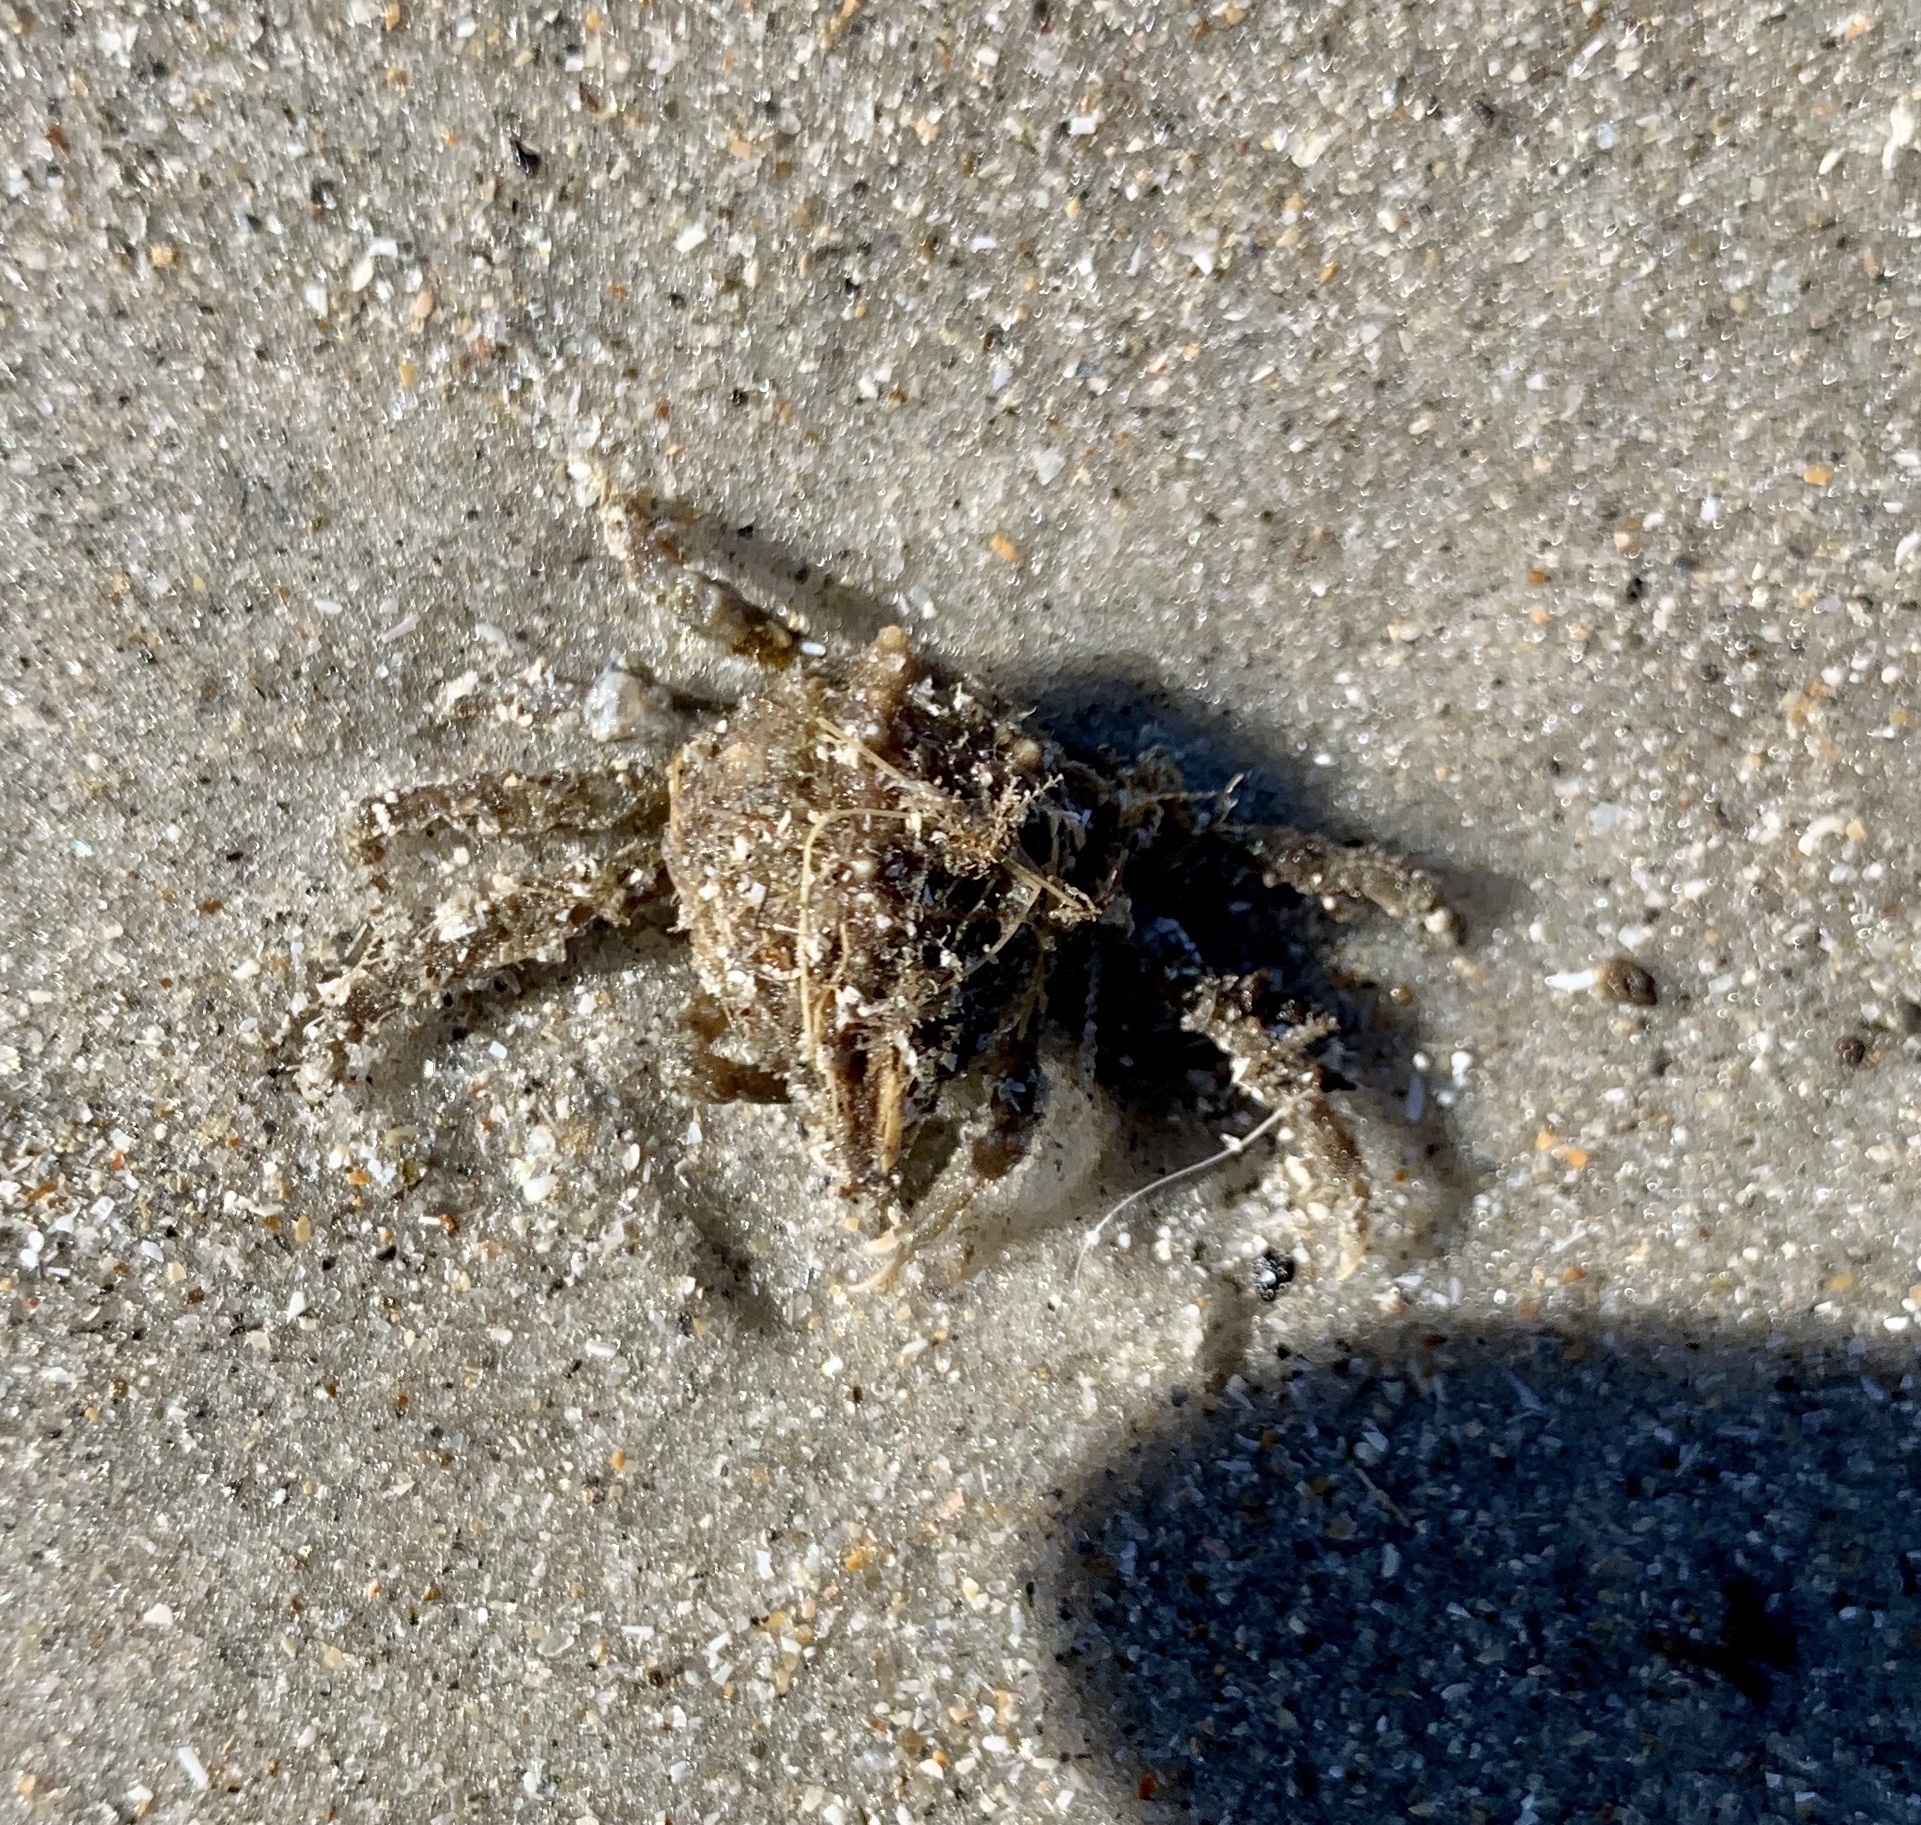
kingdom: Animalia
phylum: Arthropoda
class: Malacostraca
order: Decapoda
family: Epialtidae
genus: Libinia
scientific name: Libinia emarginata
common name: Common spider crab
